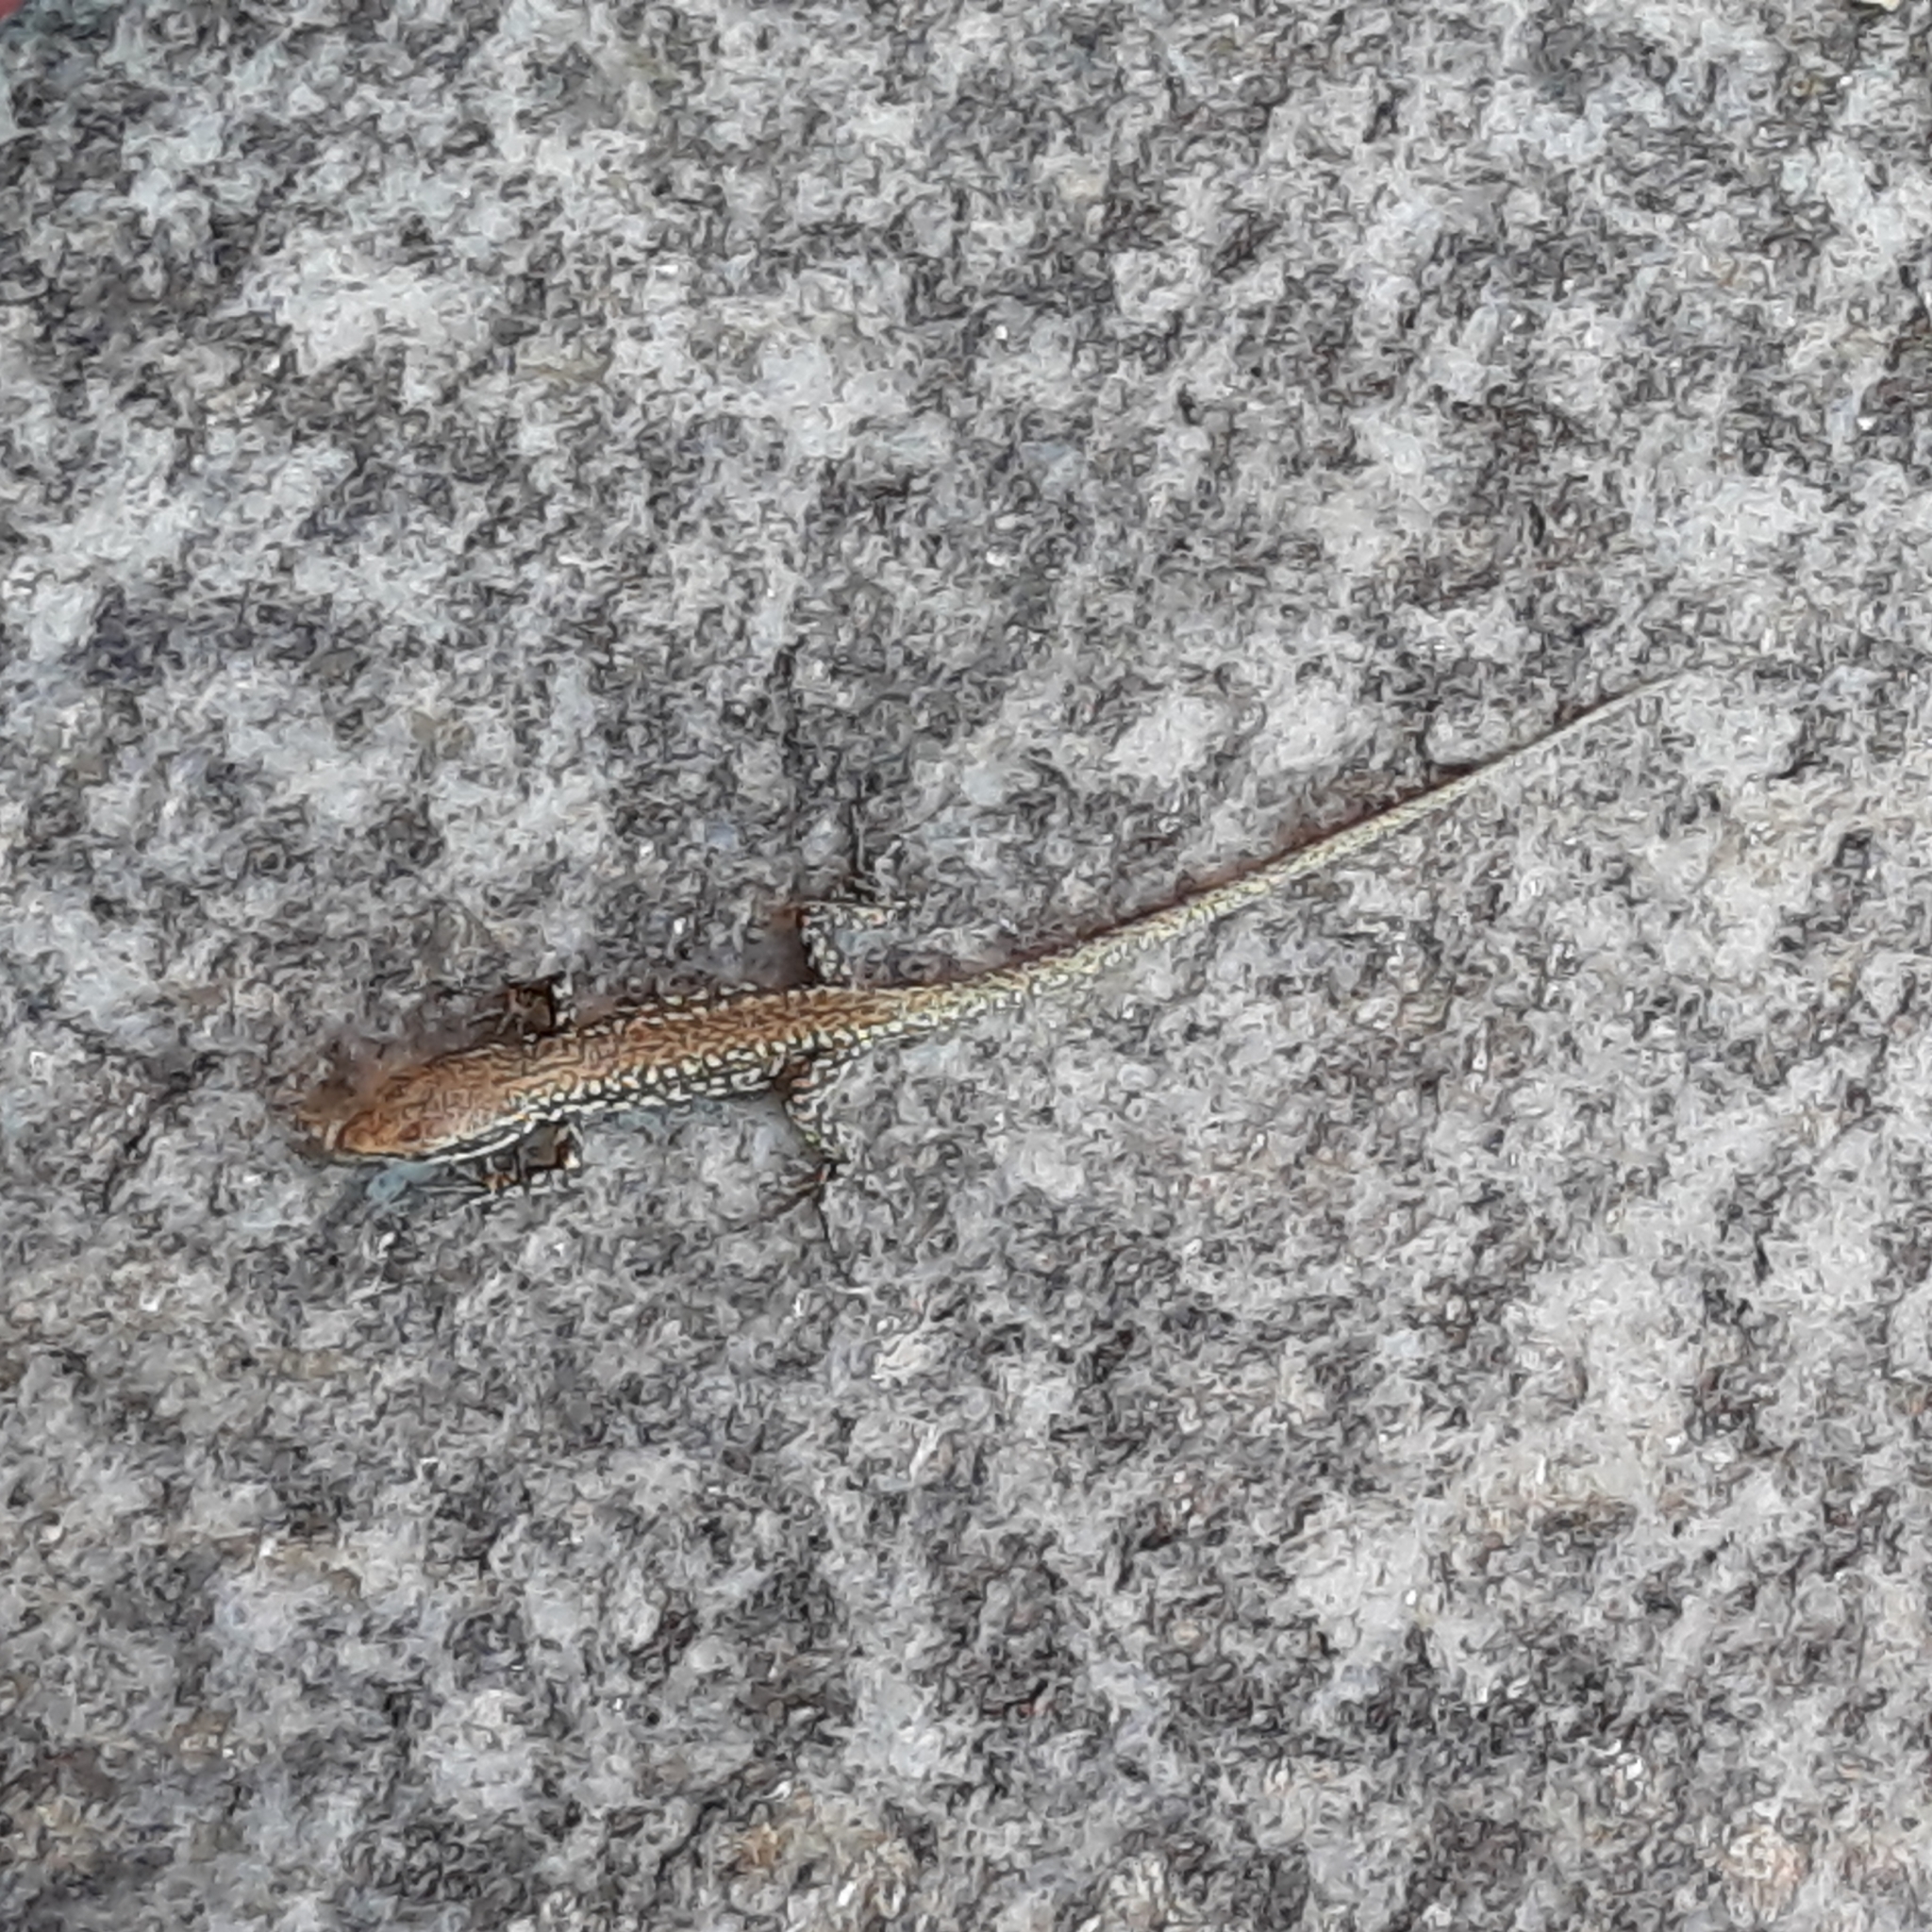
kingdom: Animalia
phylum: Chordata
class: Squamata
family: Lacertidae
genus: Podarcis
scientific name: Podarcis muralis
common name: Common wall lizard
